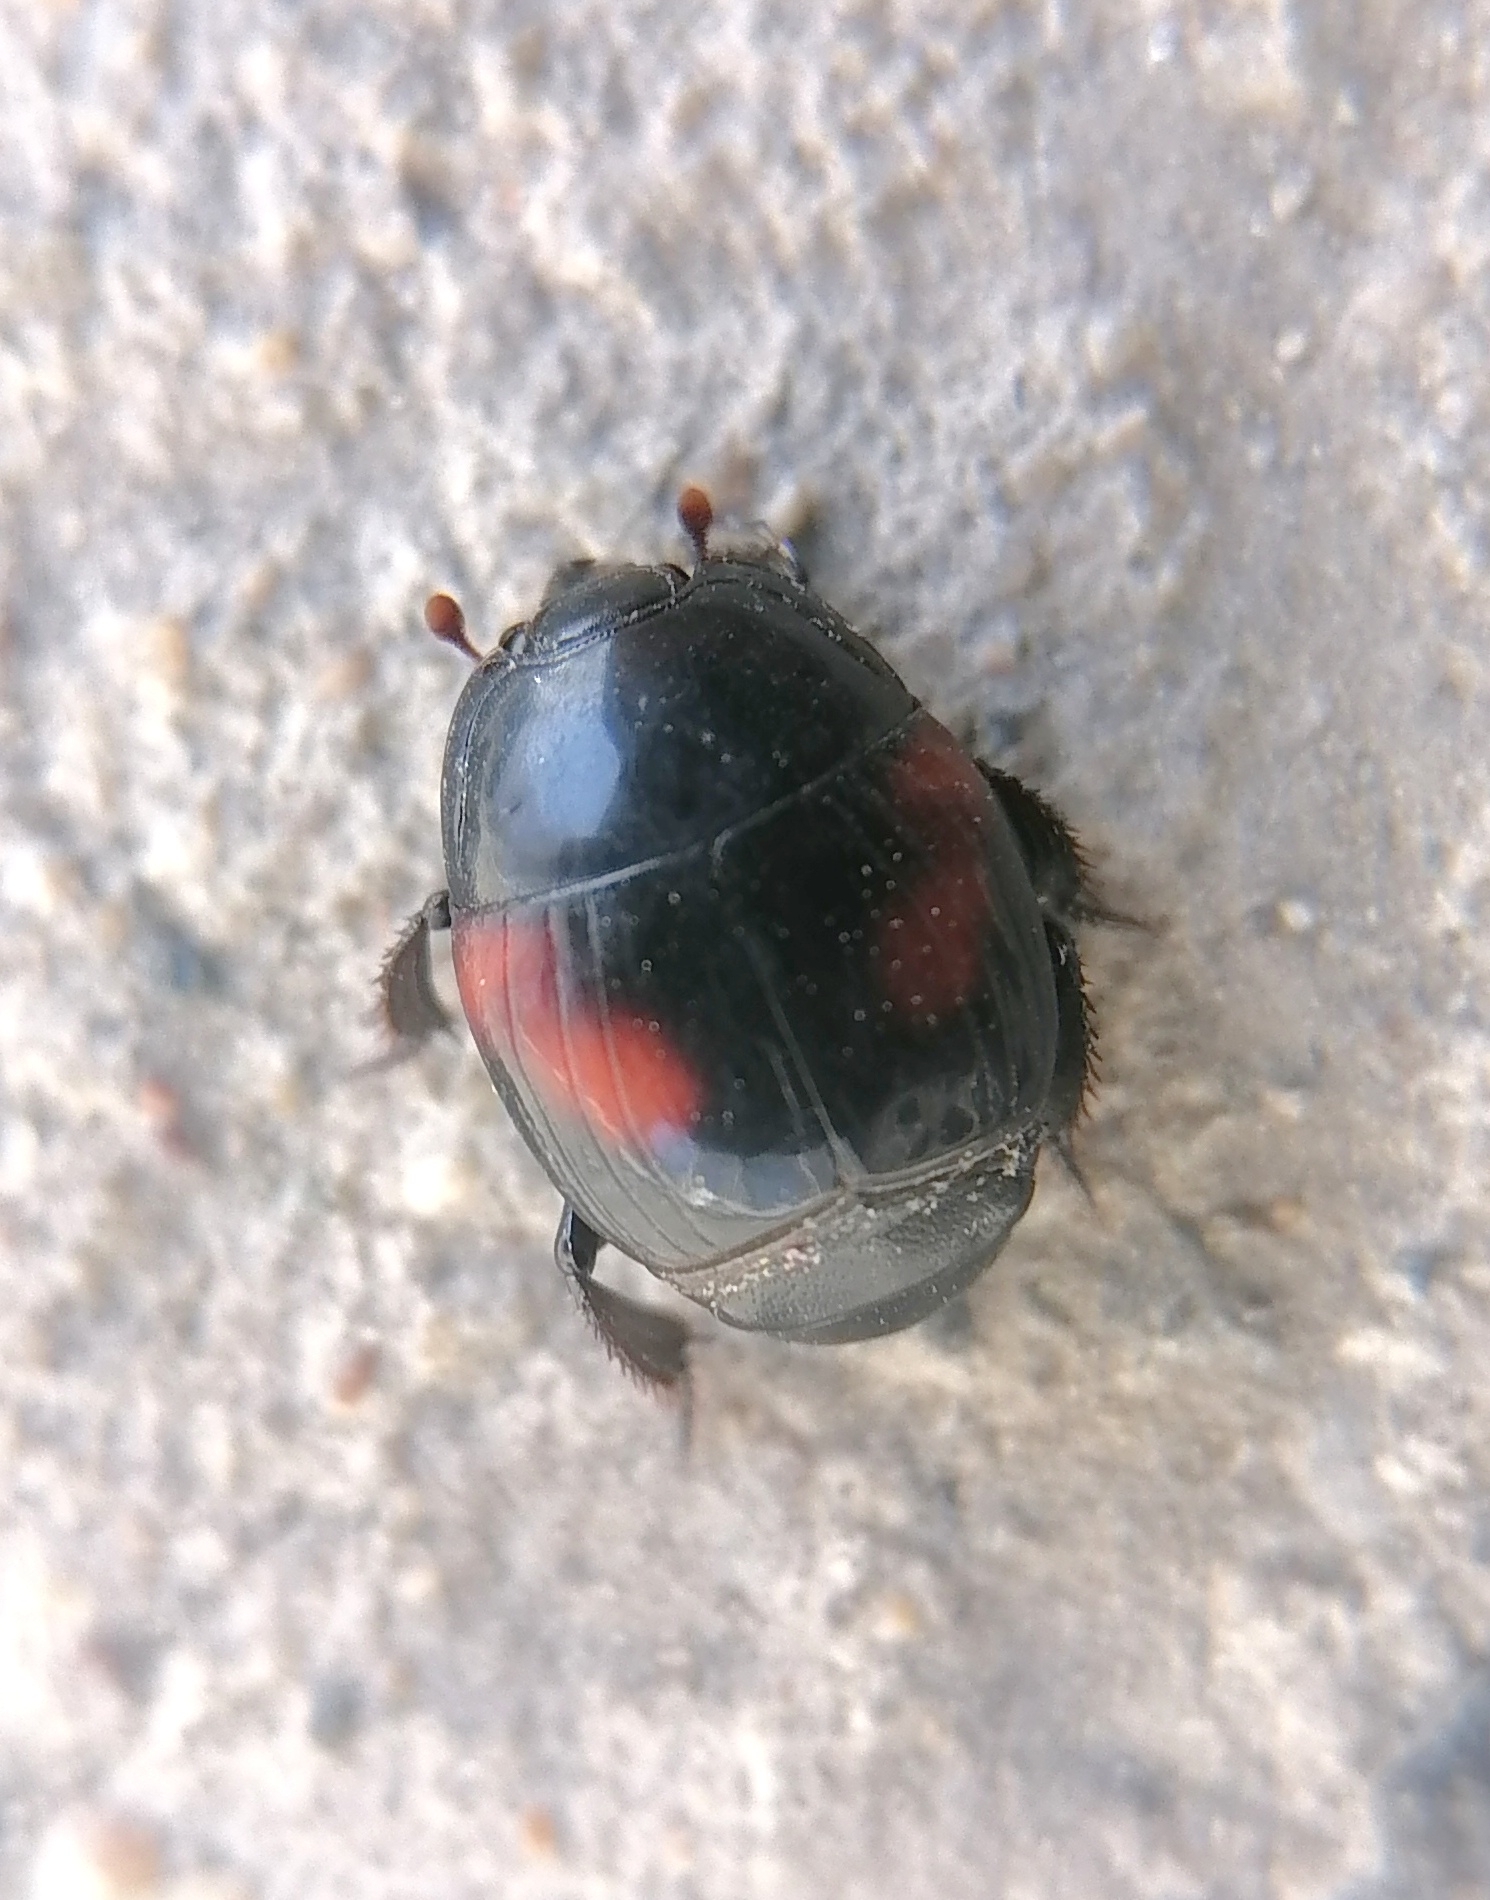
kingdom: Animalia
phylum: Arthropoda
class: Insecta
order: Coleoptera
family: Histeridae
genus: Hister
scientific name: Hister quadrinotatus
